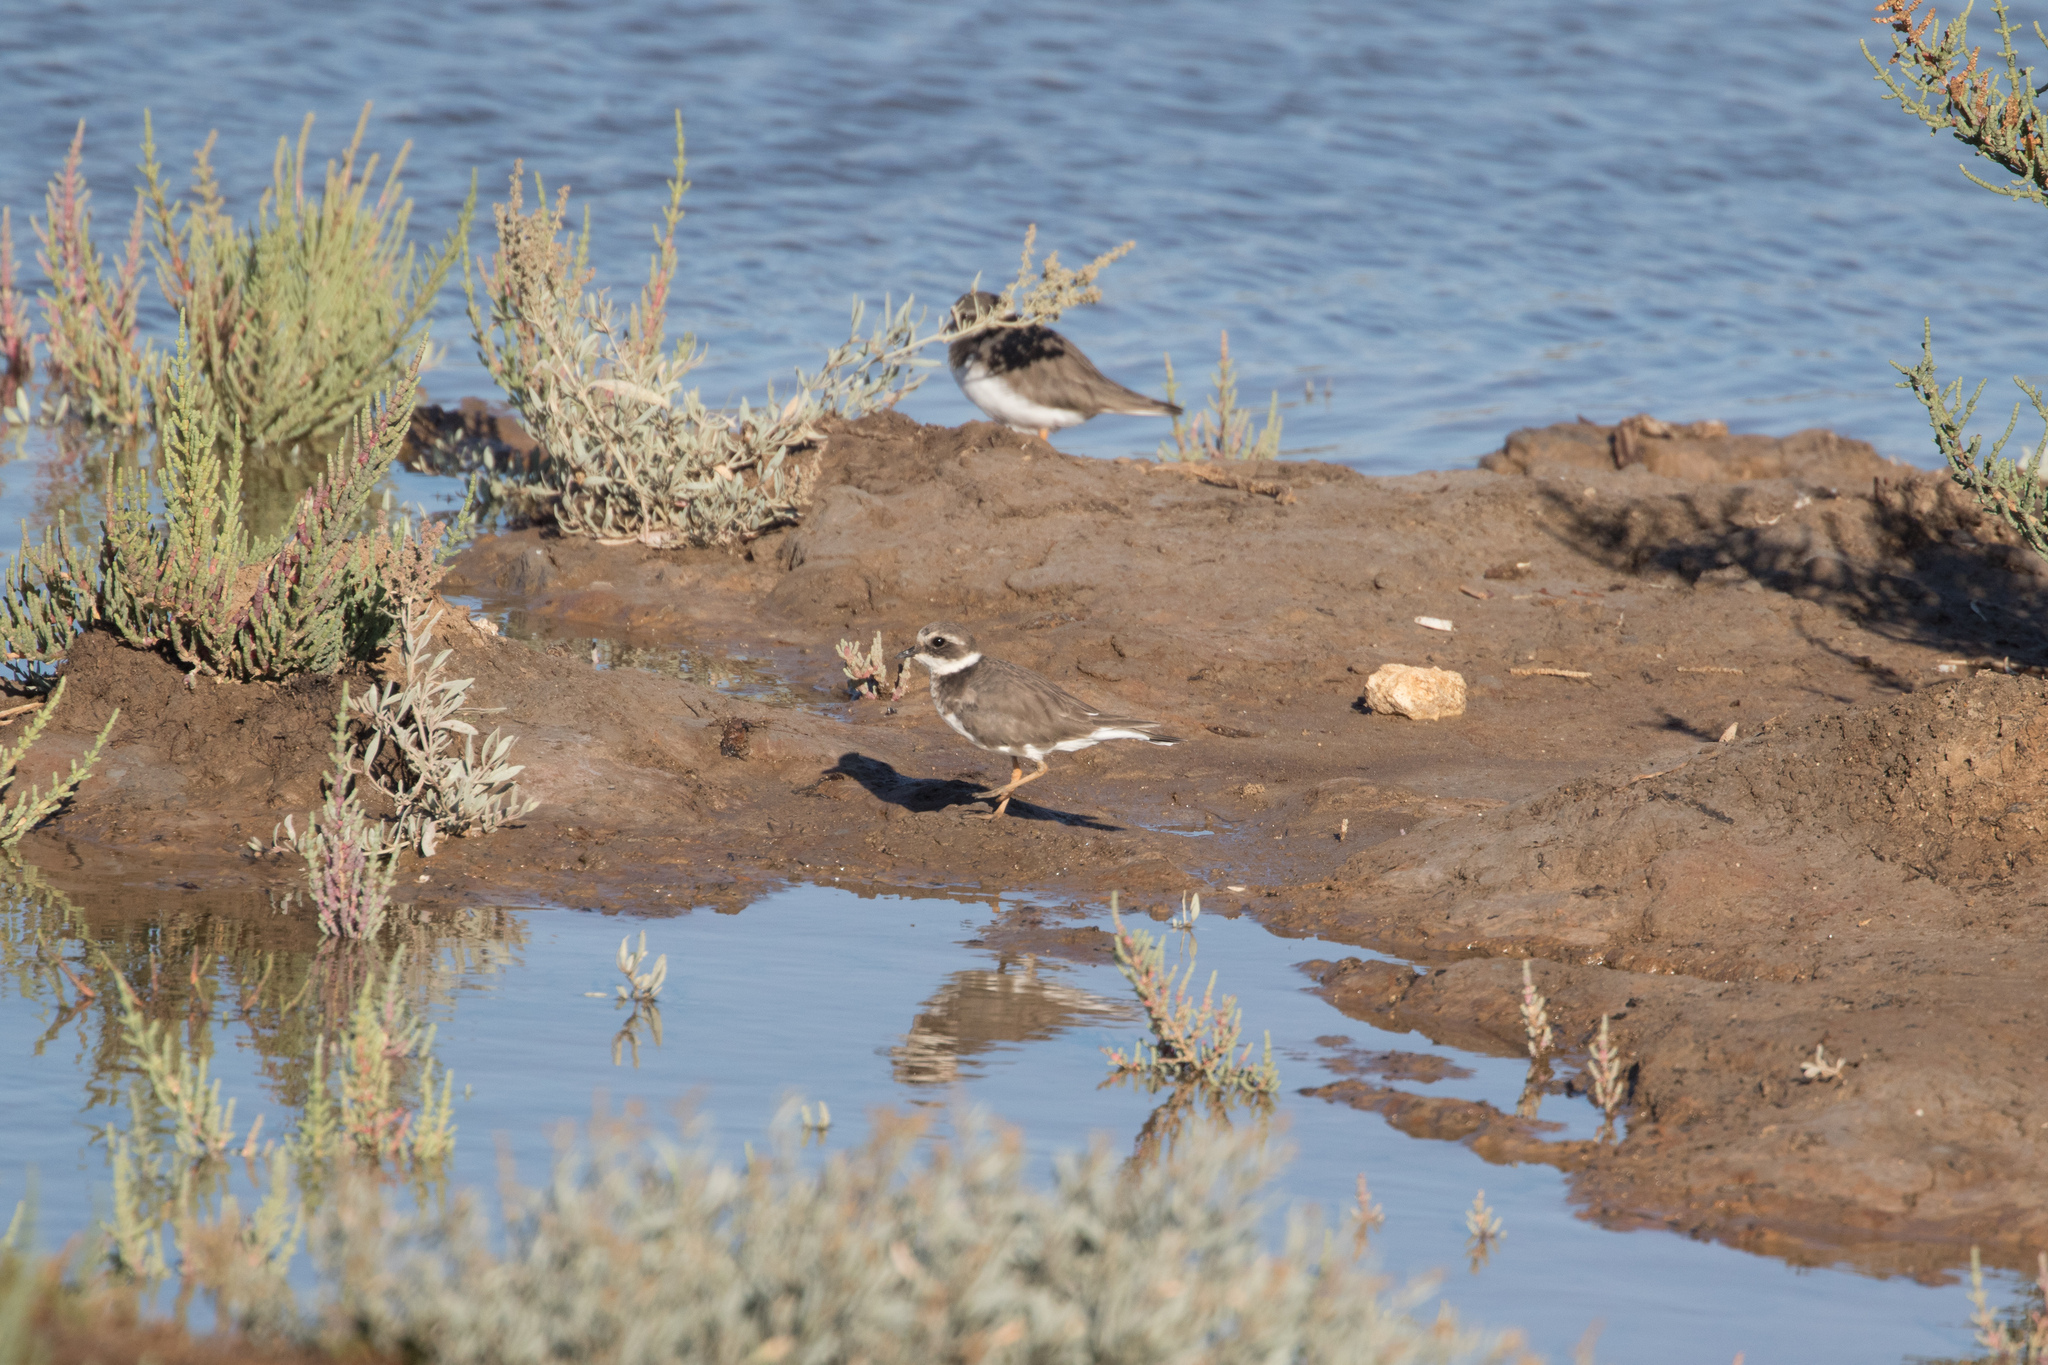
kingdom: Animalia
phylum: Chordata
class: Aves
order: Charadriiformes
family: Charadriidae
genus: Charadrius
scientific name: Charadrius hiaticula
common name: Common ringed plover
